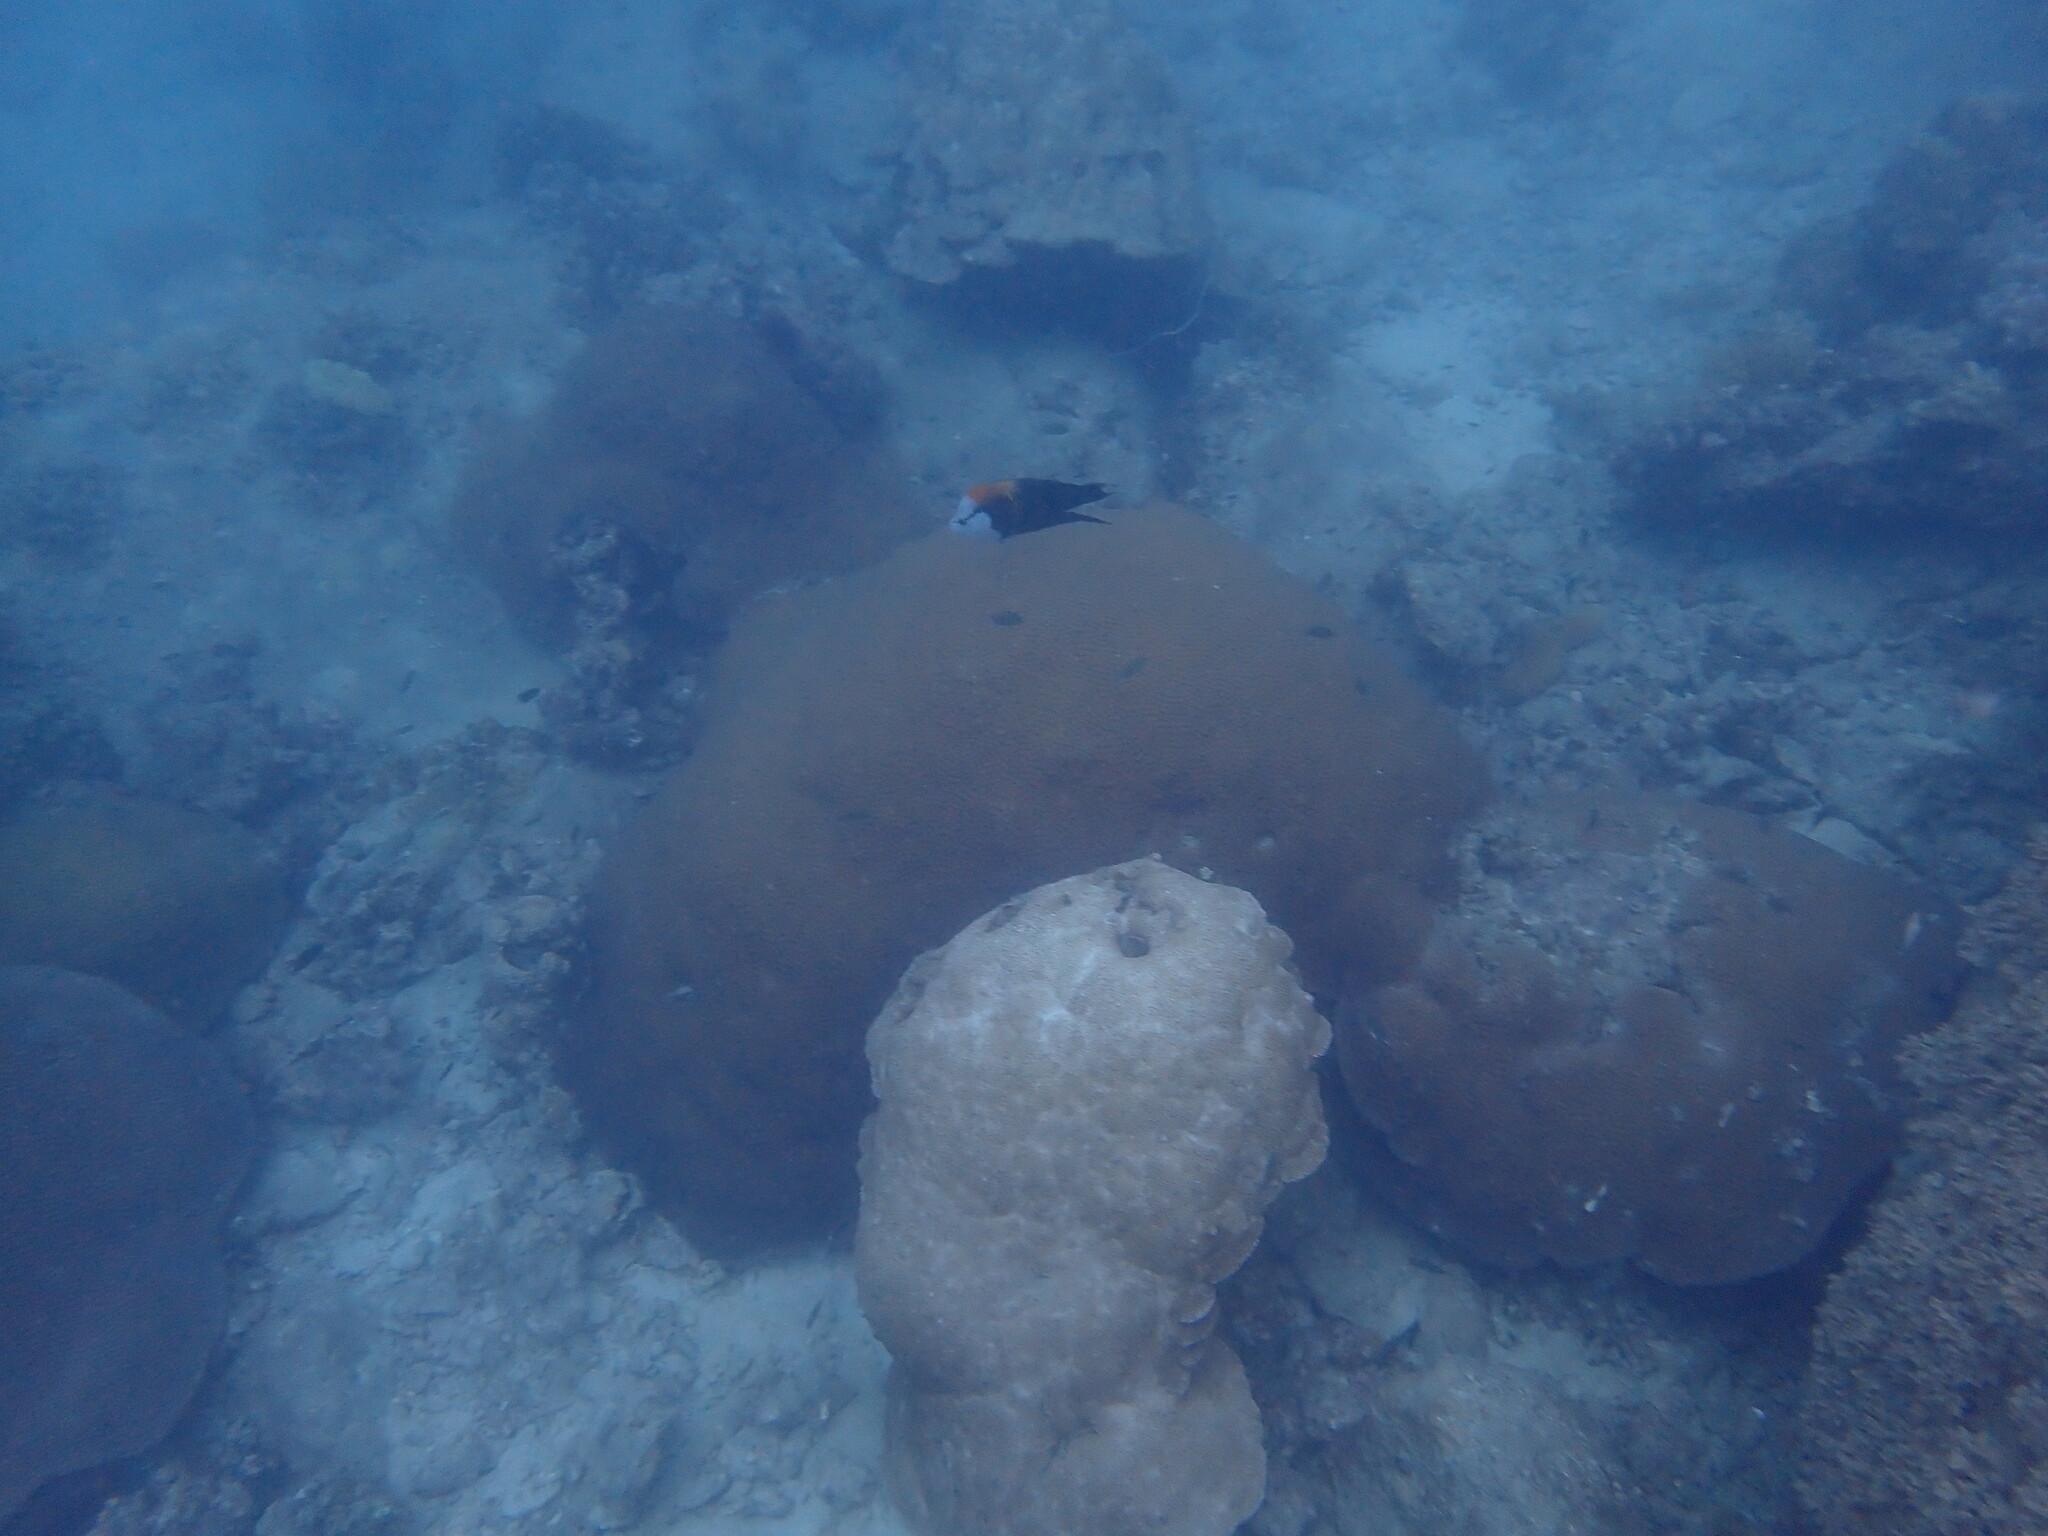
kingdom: Animalia
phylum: Chordata
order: Perciformes
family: Labridae
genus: Epibulus
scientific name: Epibulus insidiator
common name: Slingjaw wrasse
